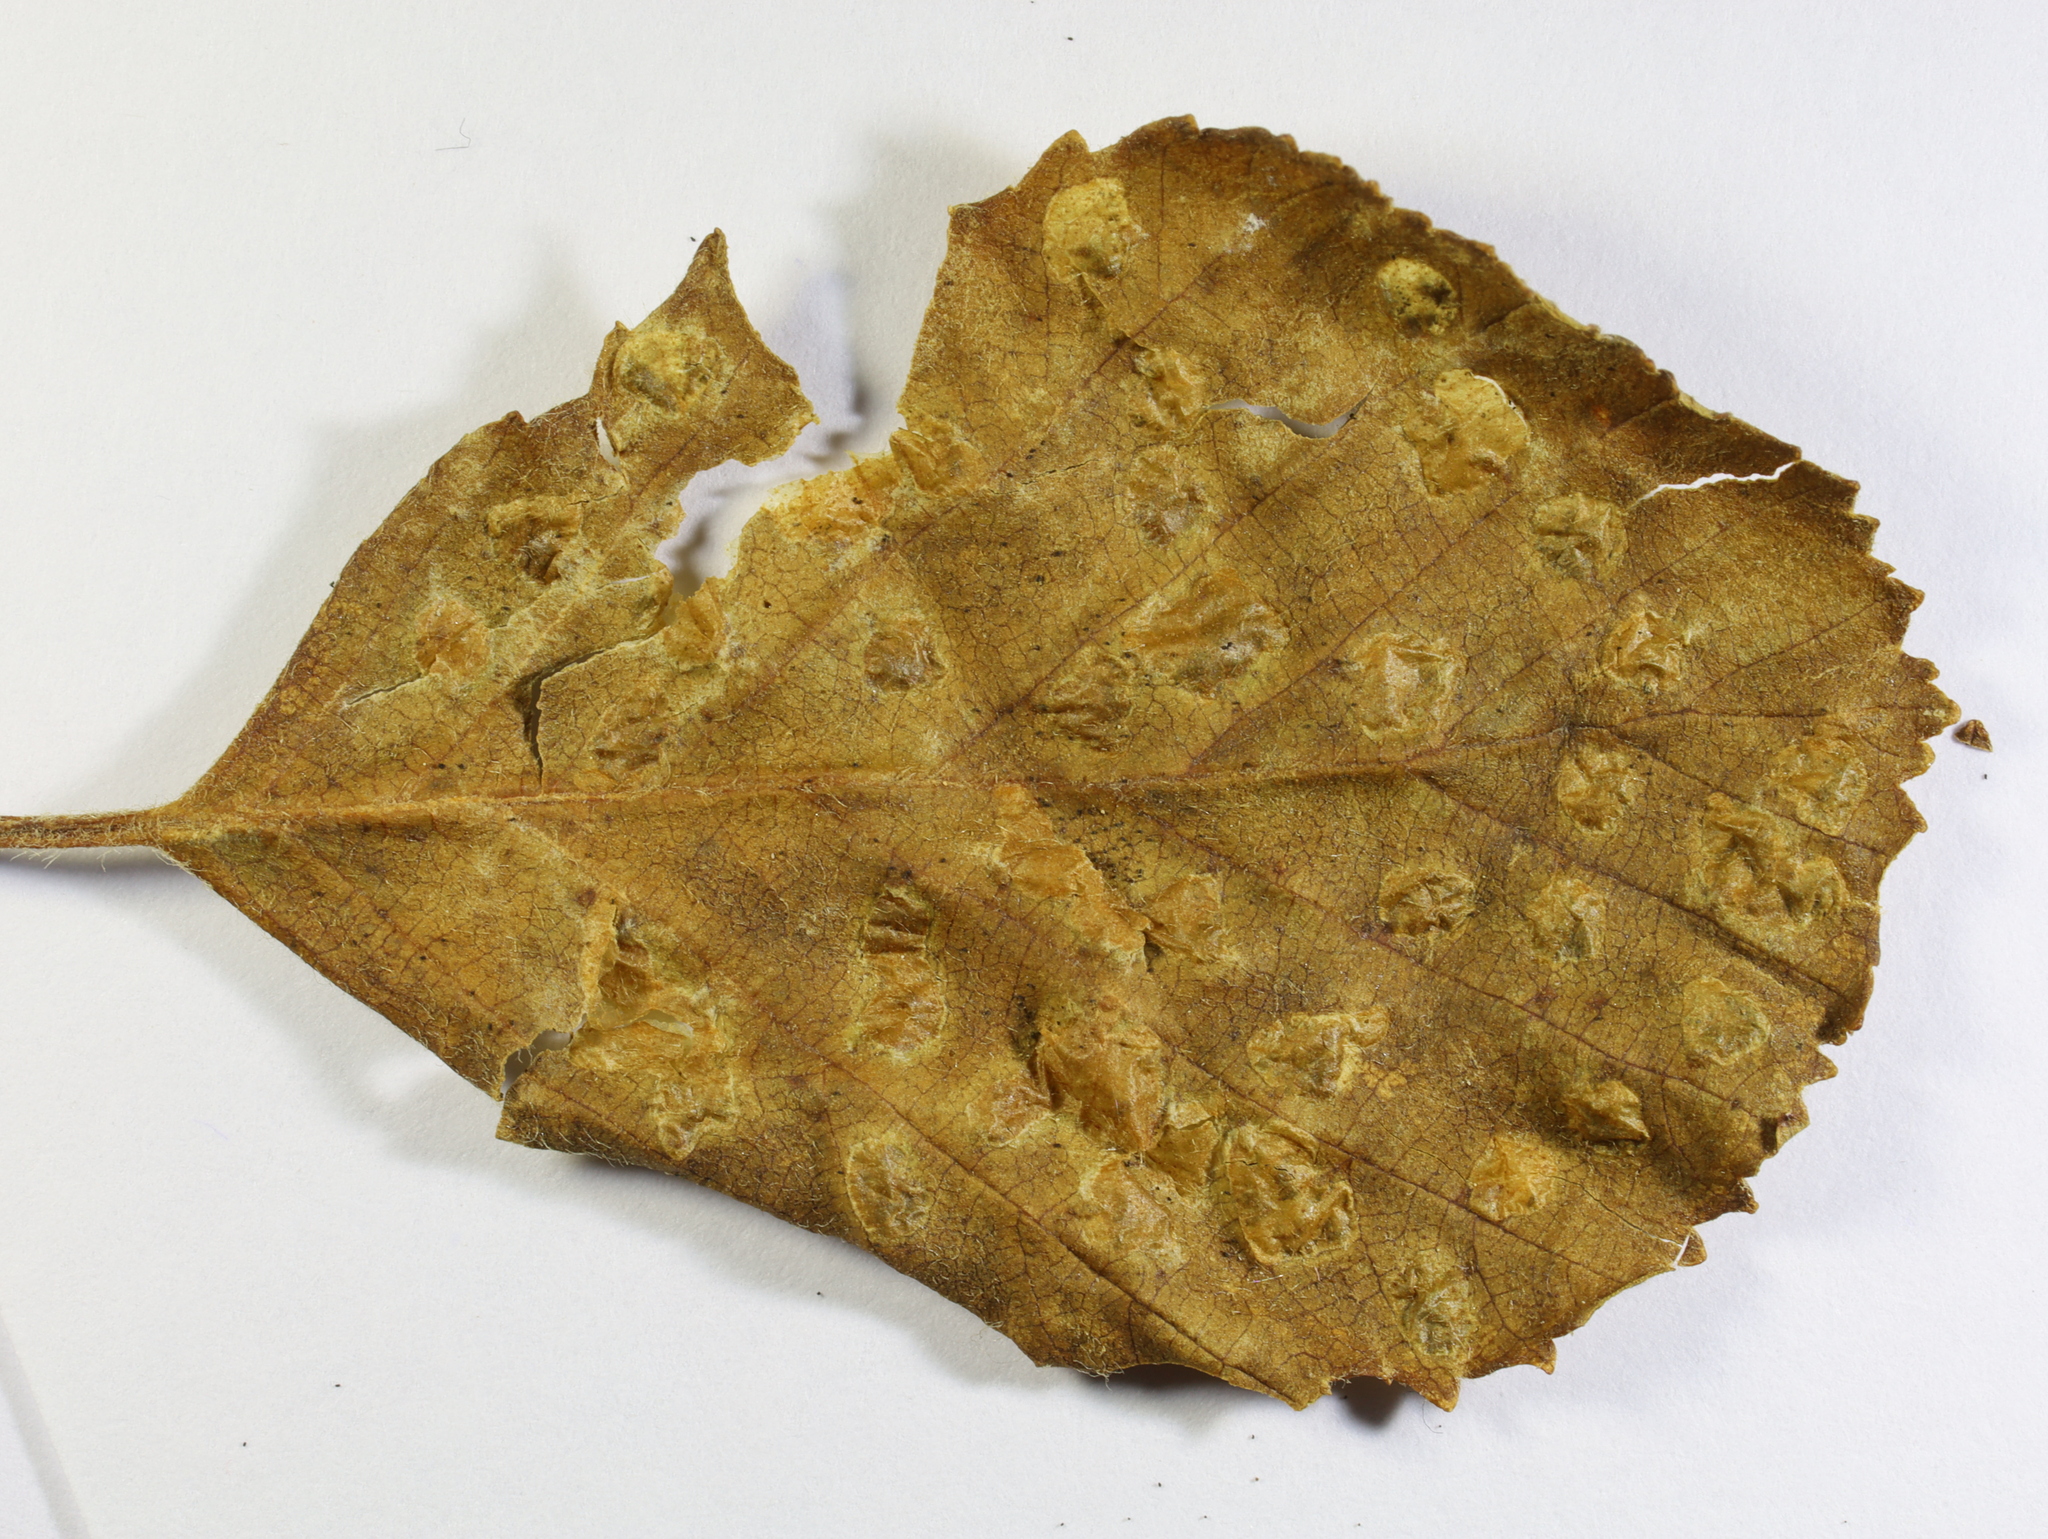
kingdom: Animalia
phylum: Arthropoda
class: Arachnida
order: Trombidiformes
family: Eriophyidae
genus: Acalitus
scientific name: Acalitus brevitarsus
